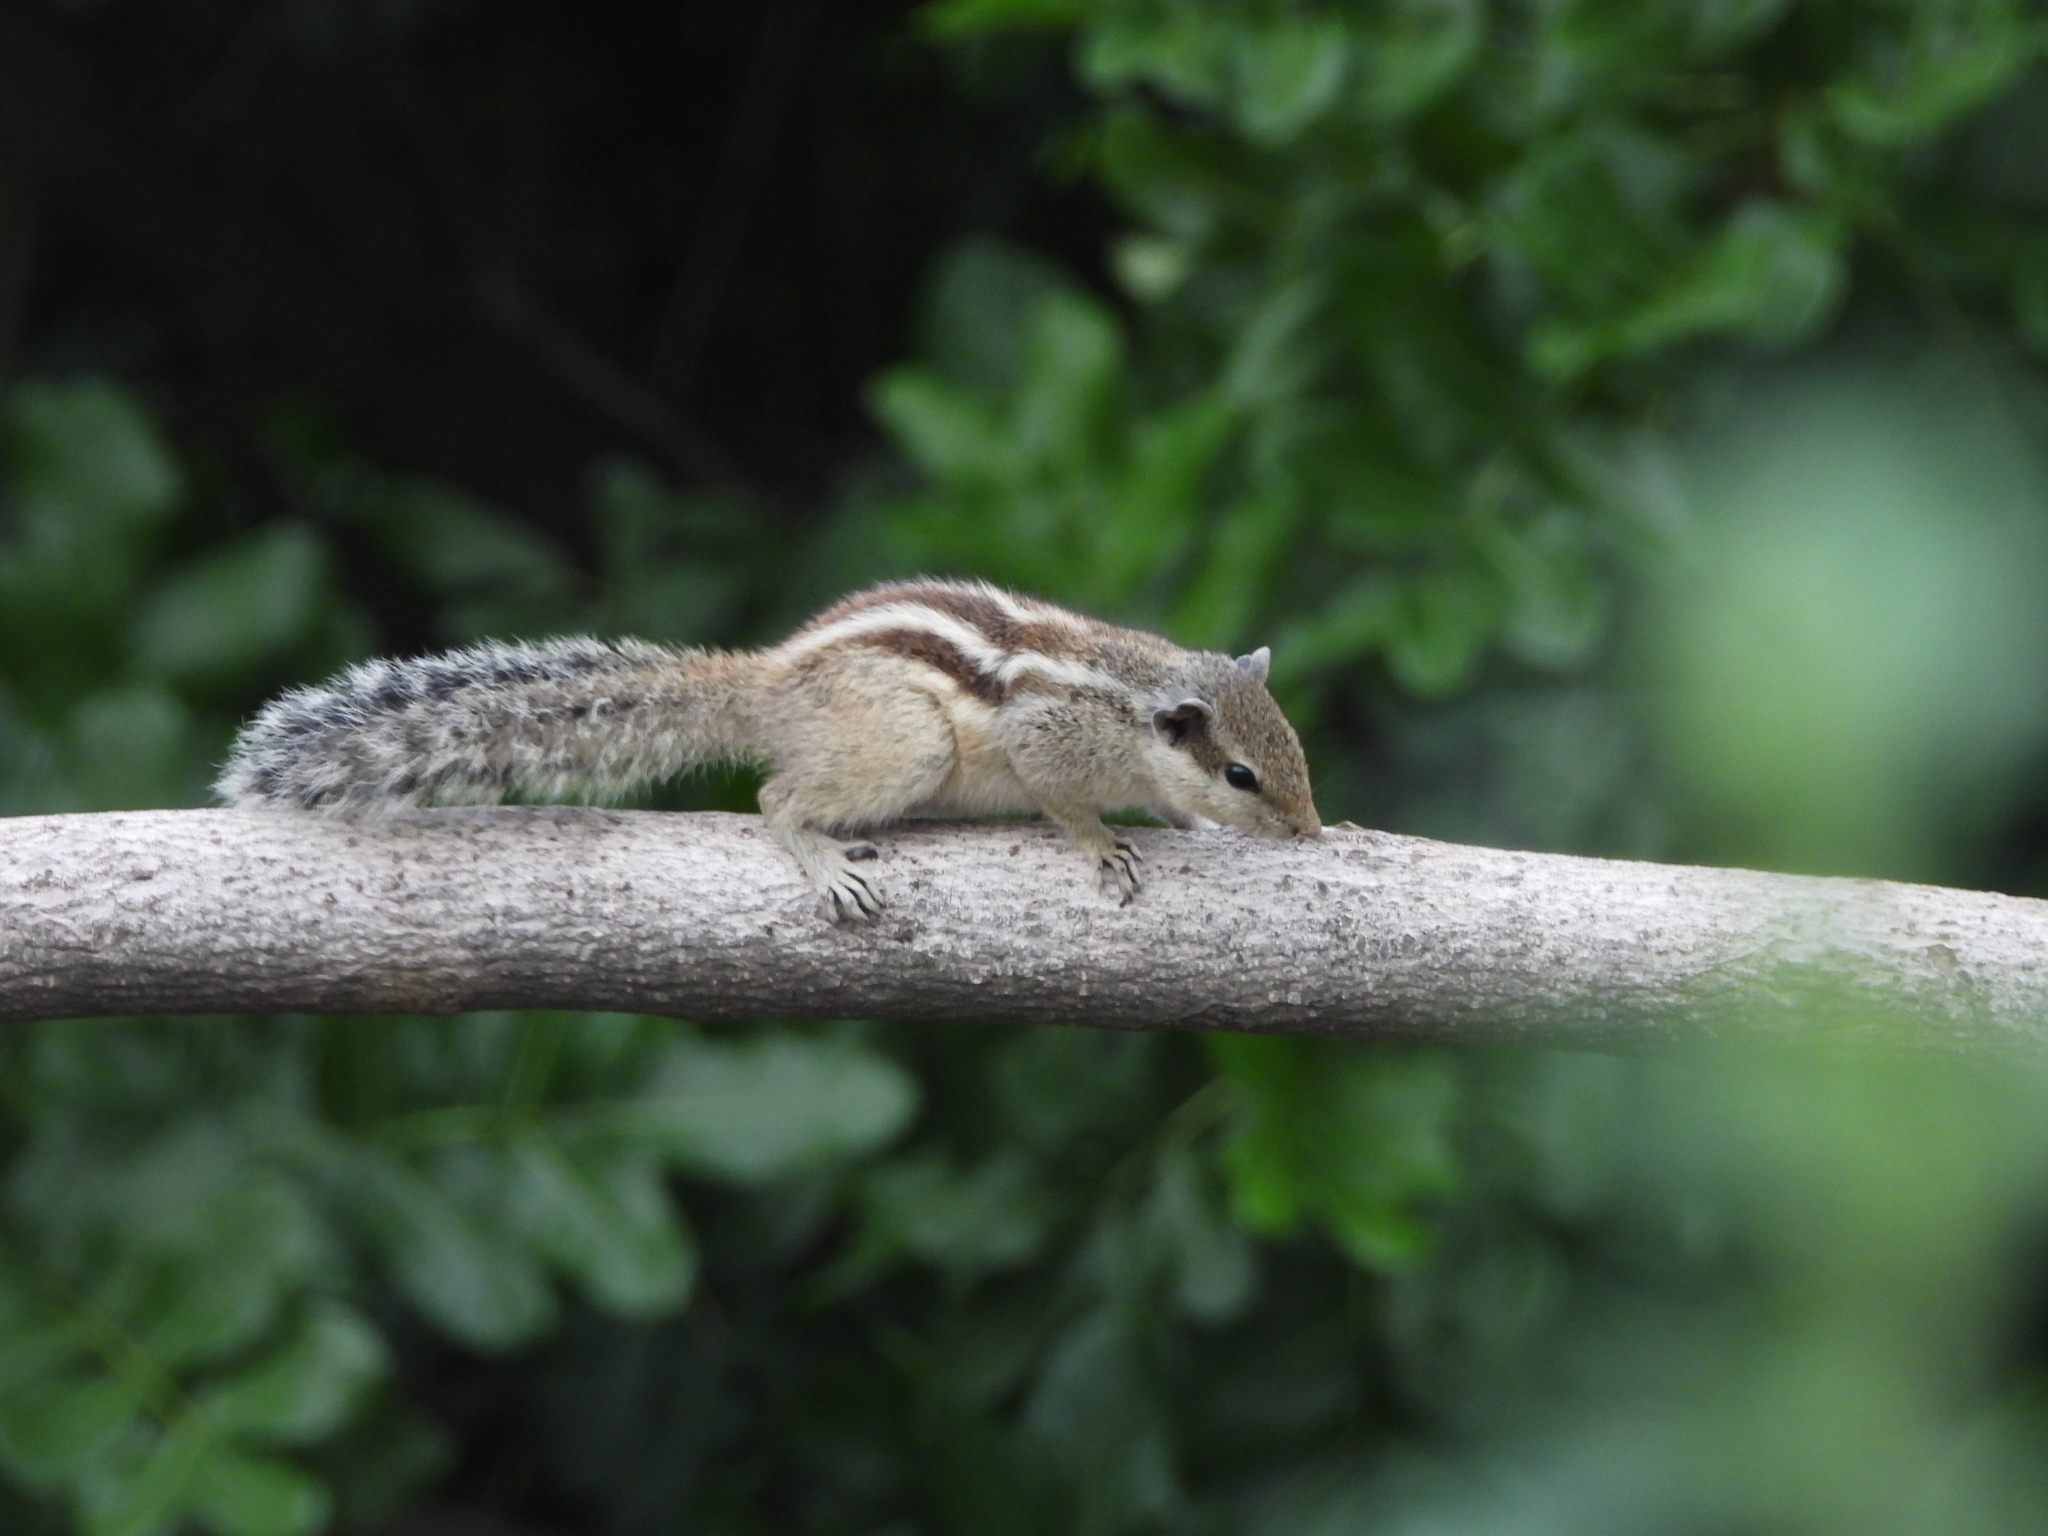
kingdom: Animalia
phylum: Chordata
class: Mammalia
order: Rodentia
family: Sciuridae
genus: Funambulus
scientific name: Funambulus pennantii
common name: Northern palm squirrel
